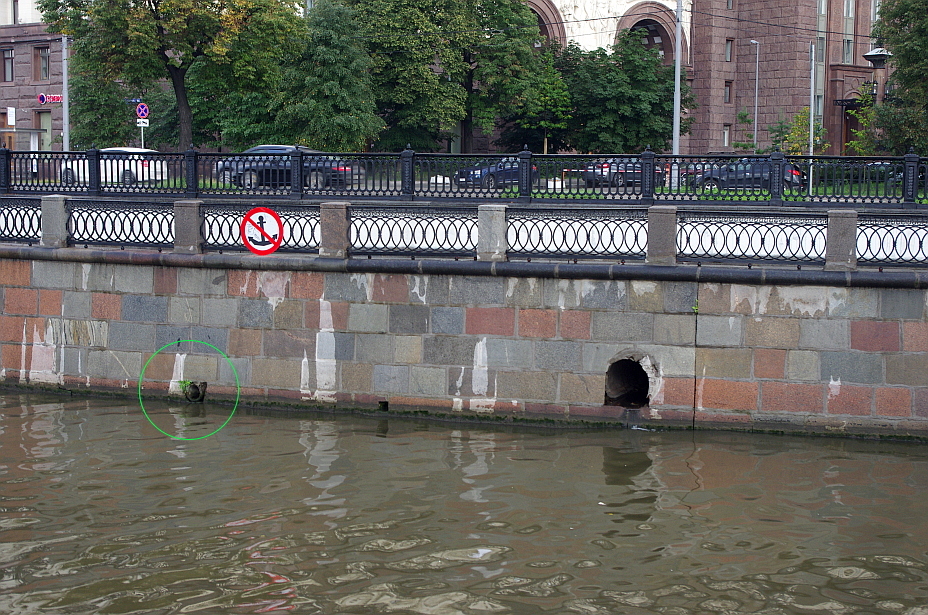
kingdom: Plantae
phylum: Tracheophyta
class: Magnoliopsida
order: Lamiales
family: Oleaceae
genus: Fraxinus
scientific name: Fraxinus pennsylvanica
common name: Green ash
